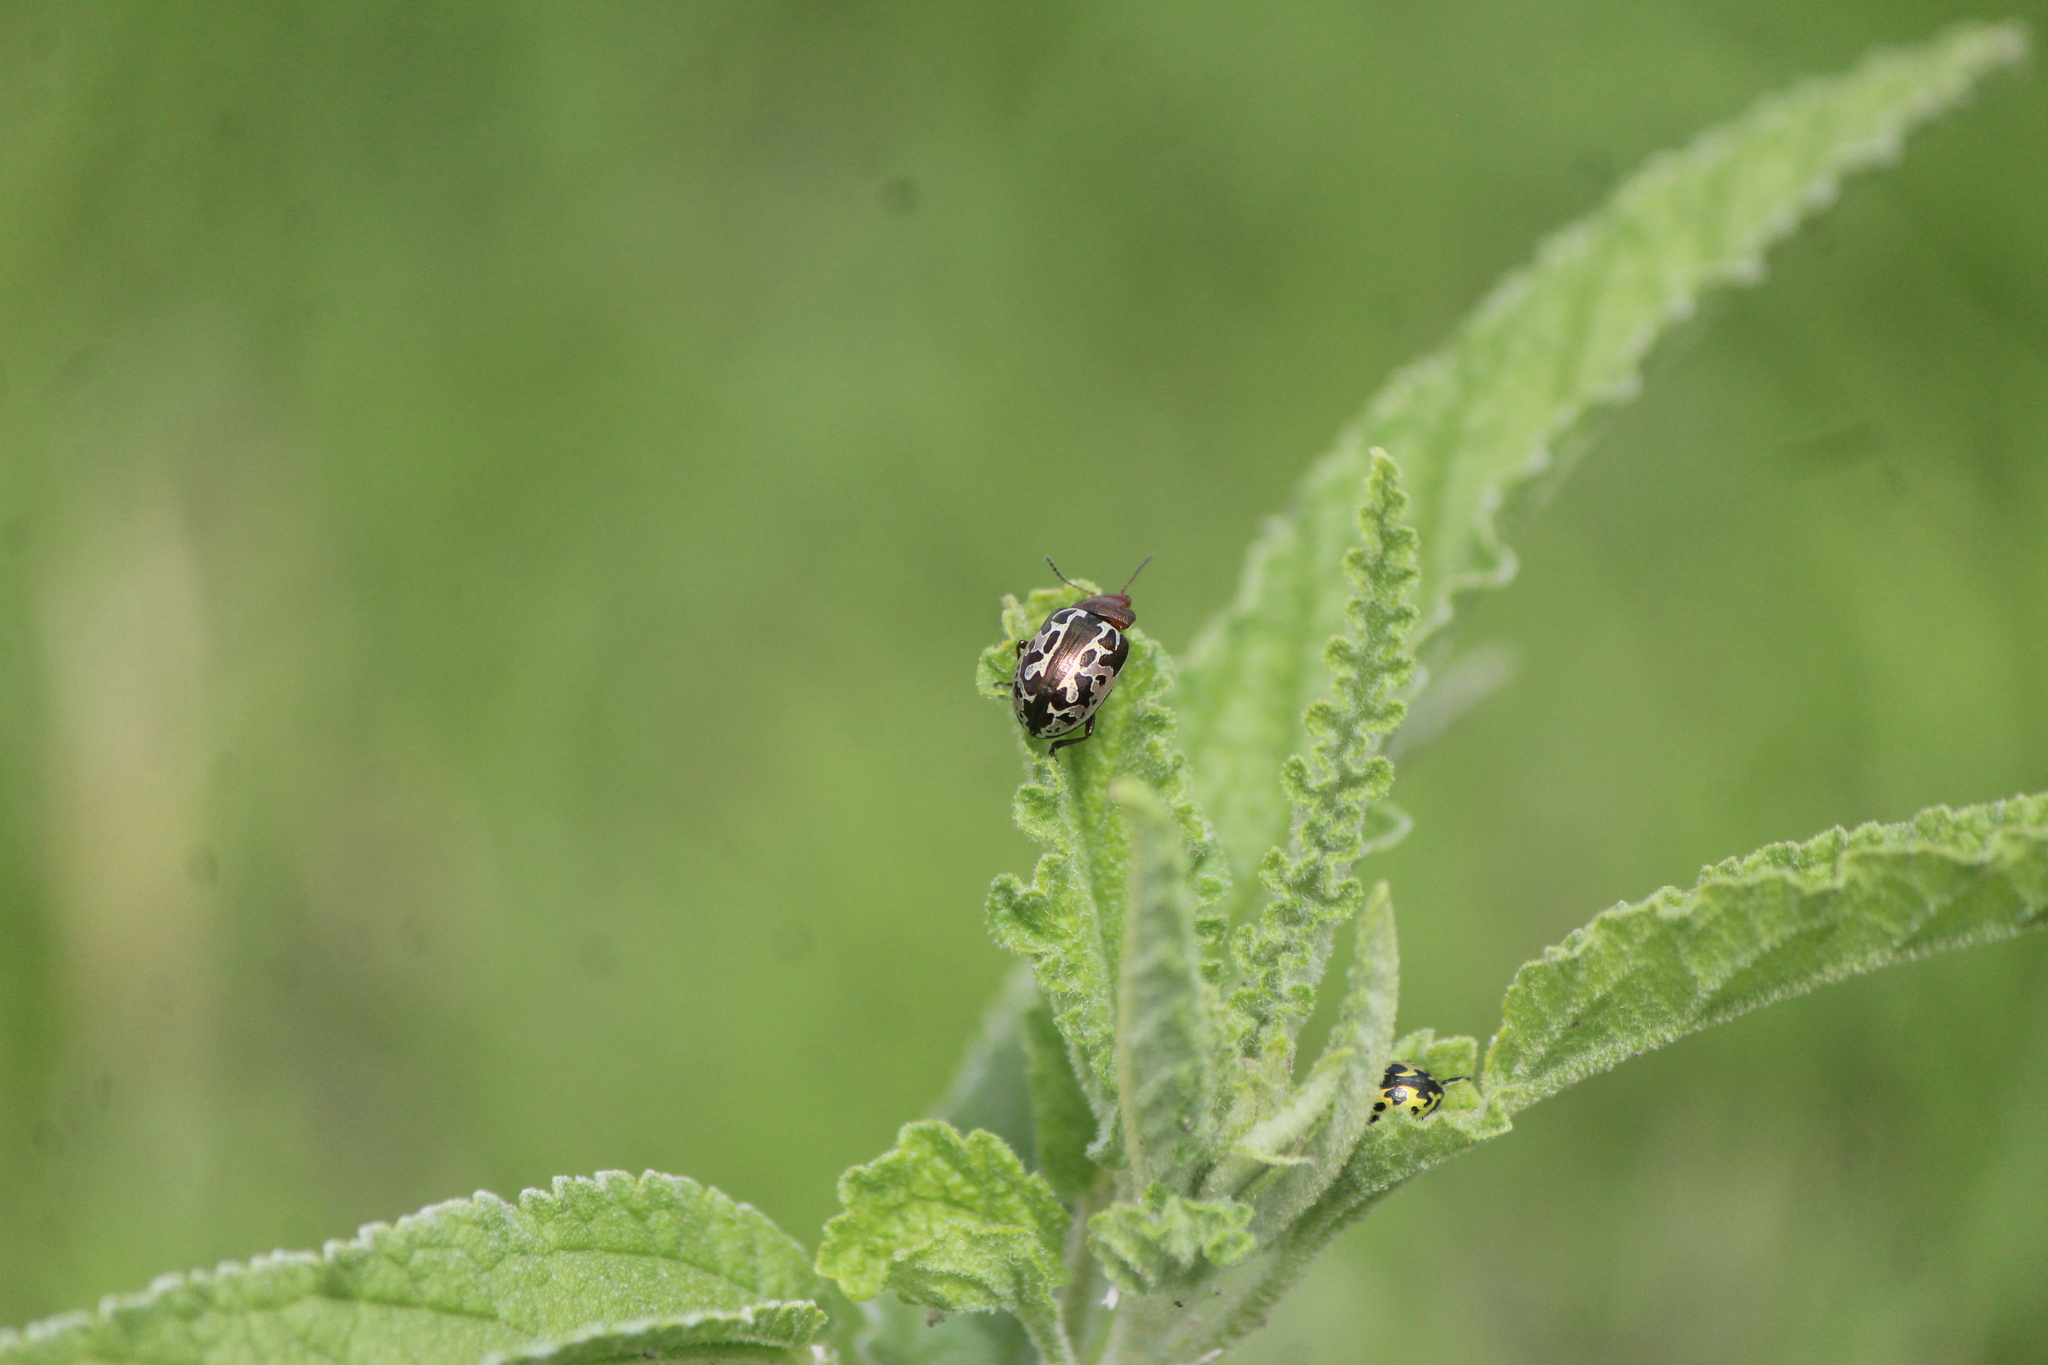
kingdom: Animalia
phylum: Arthropoda
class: Insecta
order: Coleoptera
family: Chrysomelidae
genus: Calligrapha
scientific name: Calligrapha
